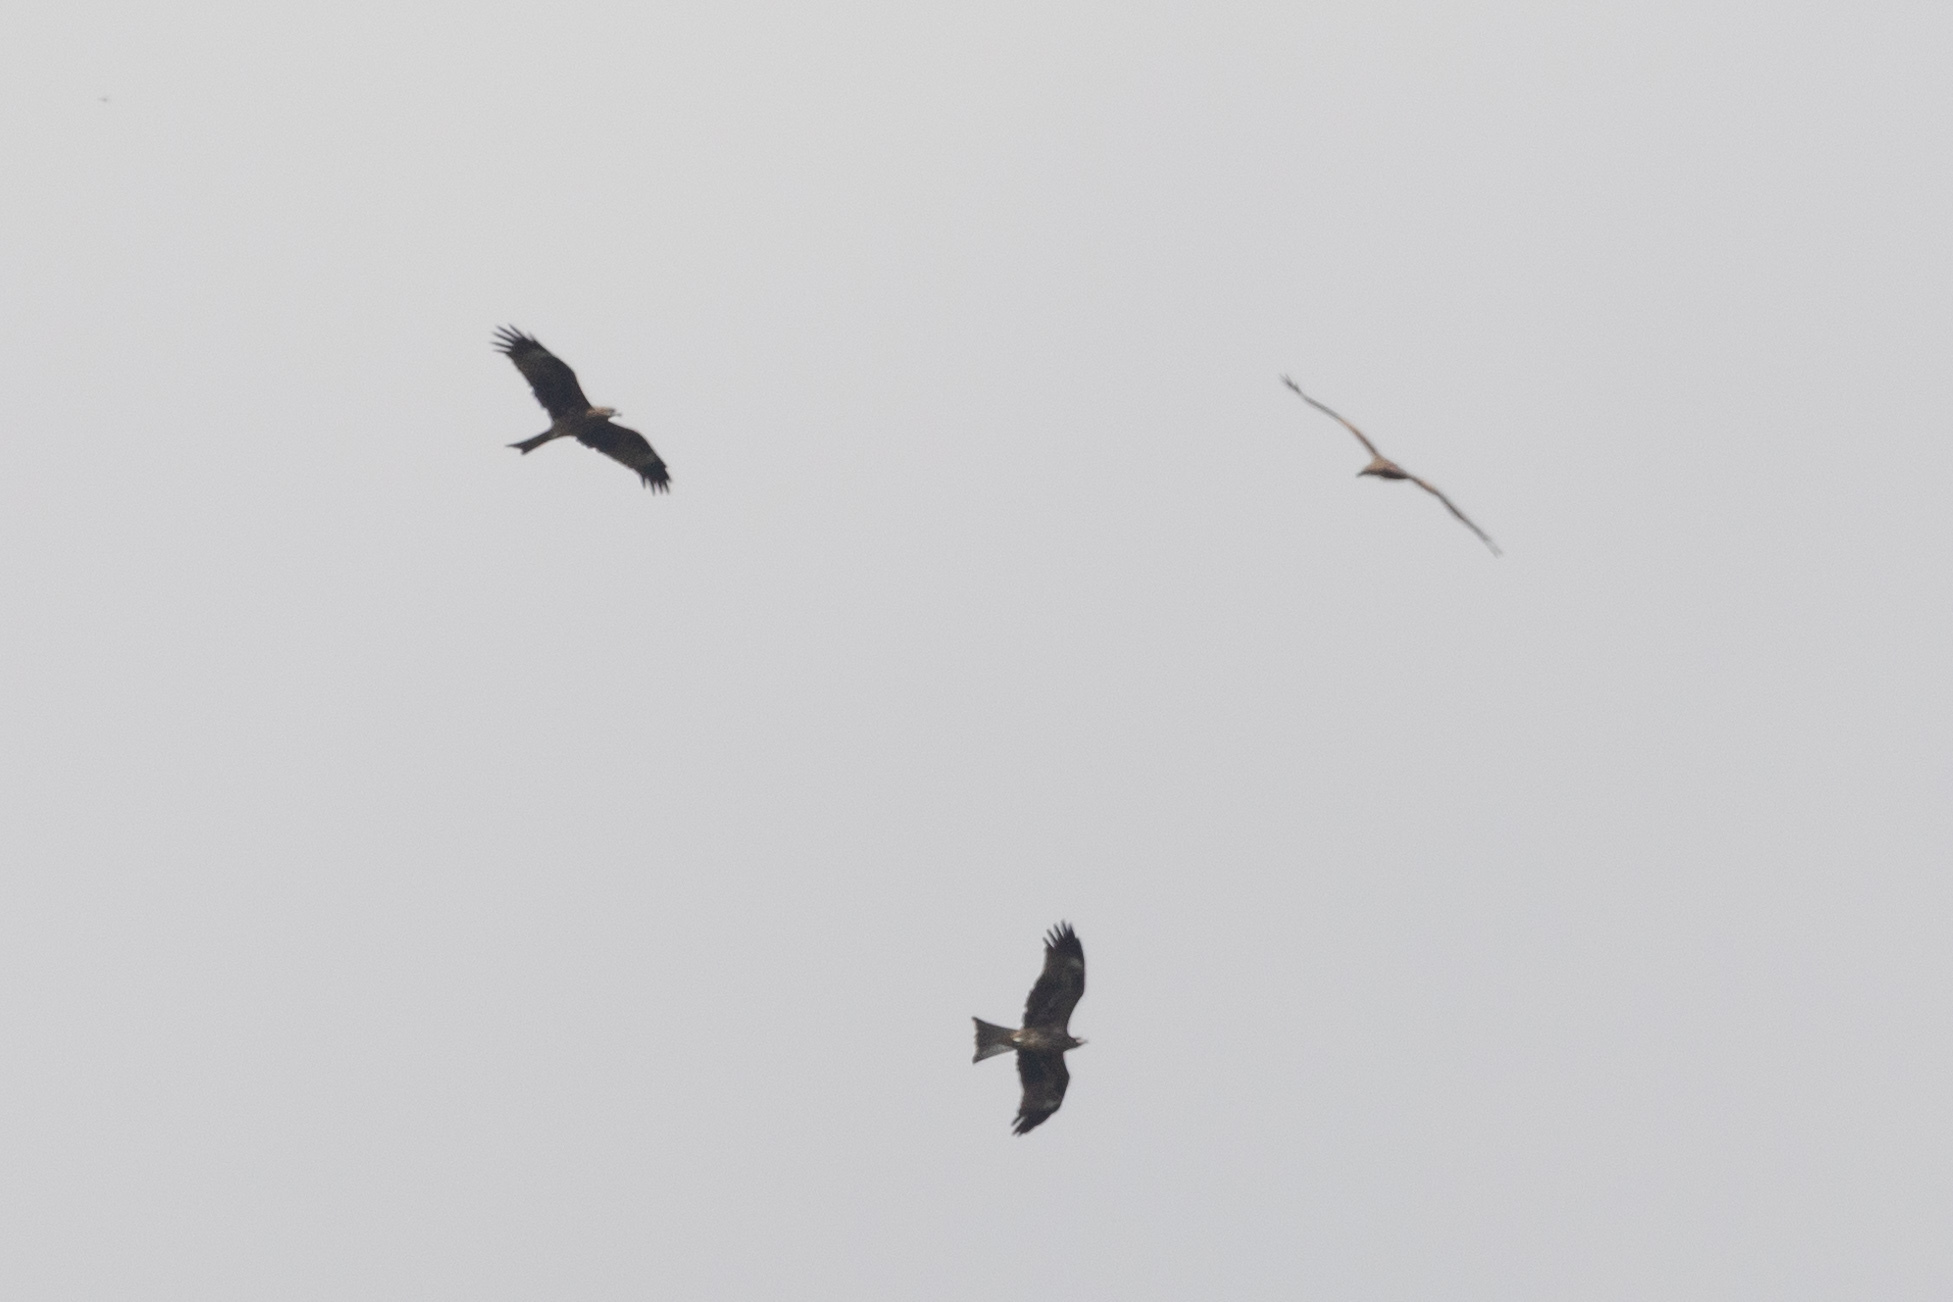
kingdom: Animalia
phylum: Chordata
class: Aves
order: Accipitriformes
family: Accipitridae
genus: Milvus
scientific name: Milvus migrans
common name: Black kite
